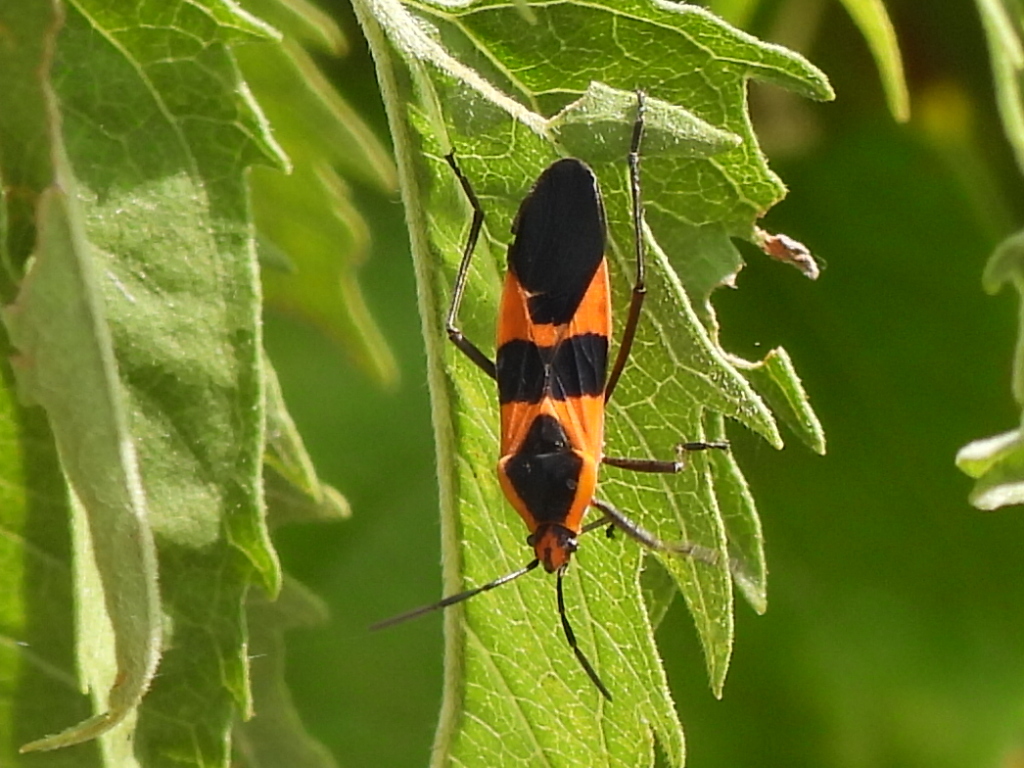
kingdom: Animalia
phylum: Arthropoda
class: Insecta
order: Hemiptera
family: Lygaeidae
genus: Oncopeltus
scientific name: Oncopeltus fasciatus
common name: Large milkweed bug
